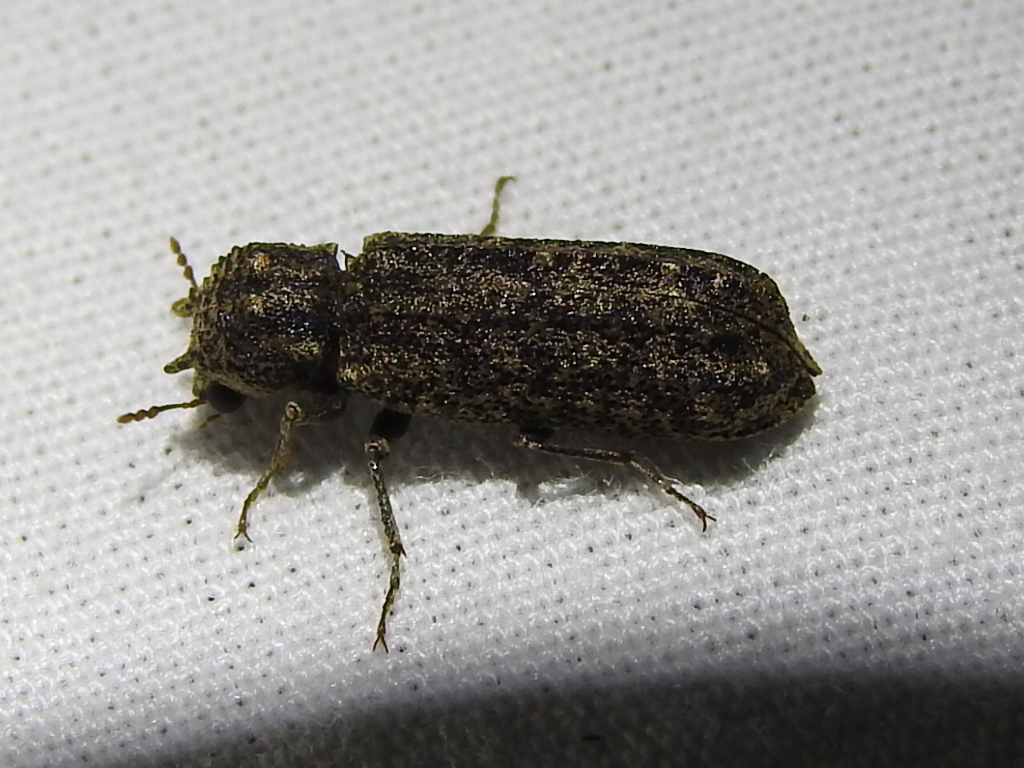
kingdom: Animalia
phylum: Arthropoda
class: Insecta
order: Coleoptera
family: Bostrichidae
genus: Lichenophanes
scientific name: Lichenophanes bicornis
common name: Two-horned powder-post beetle
